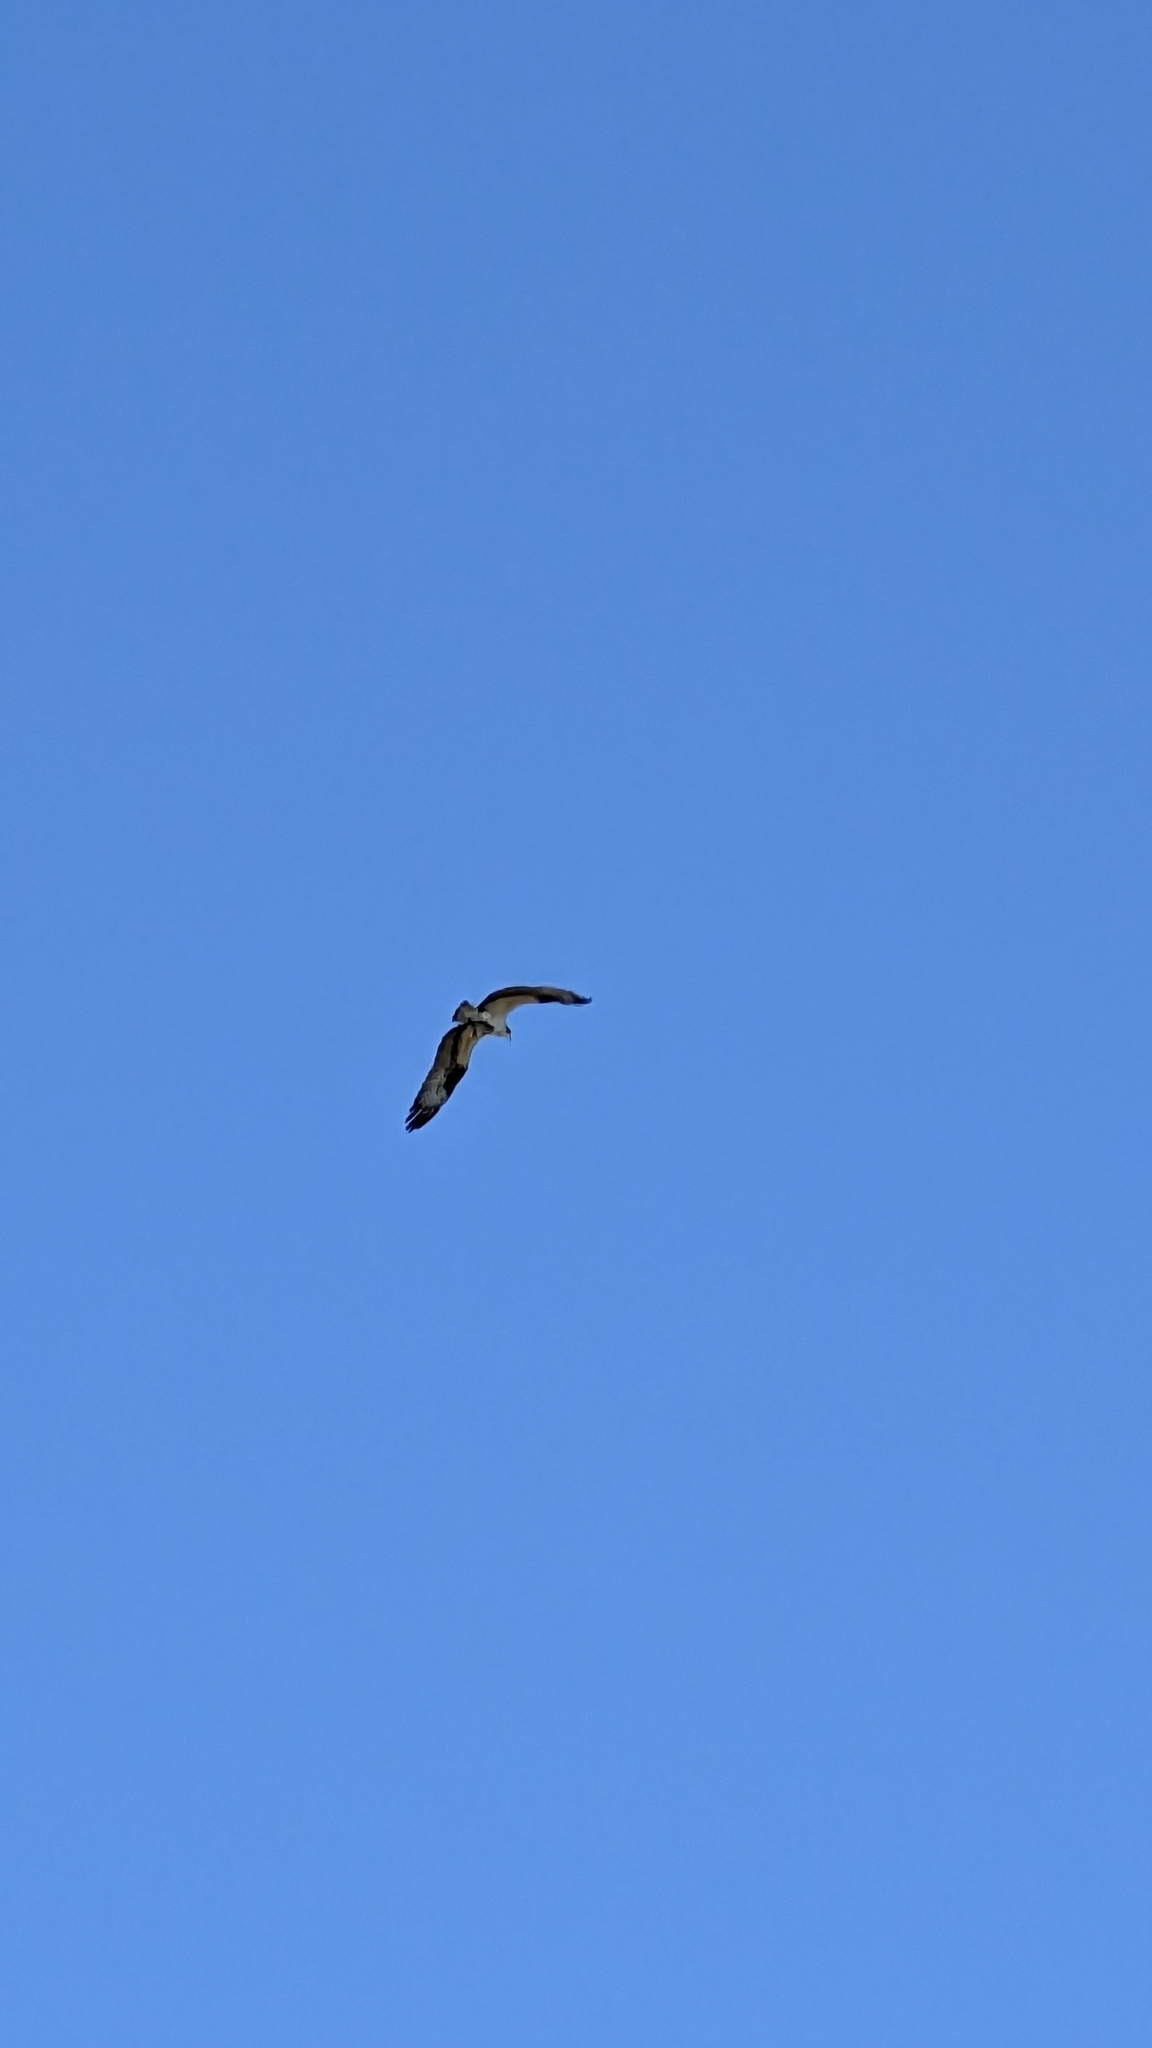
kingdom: Animalia
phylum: Chordata
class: Aves
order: Accipitriformes
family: Pandionidae
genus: Pandion
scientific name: Pandion haliaetus
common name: Osprey
